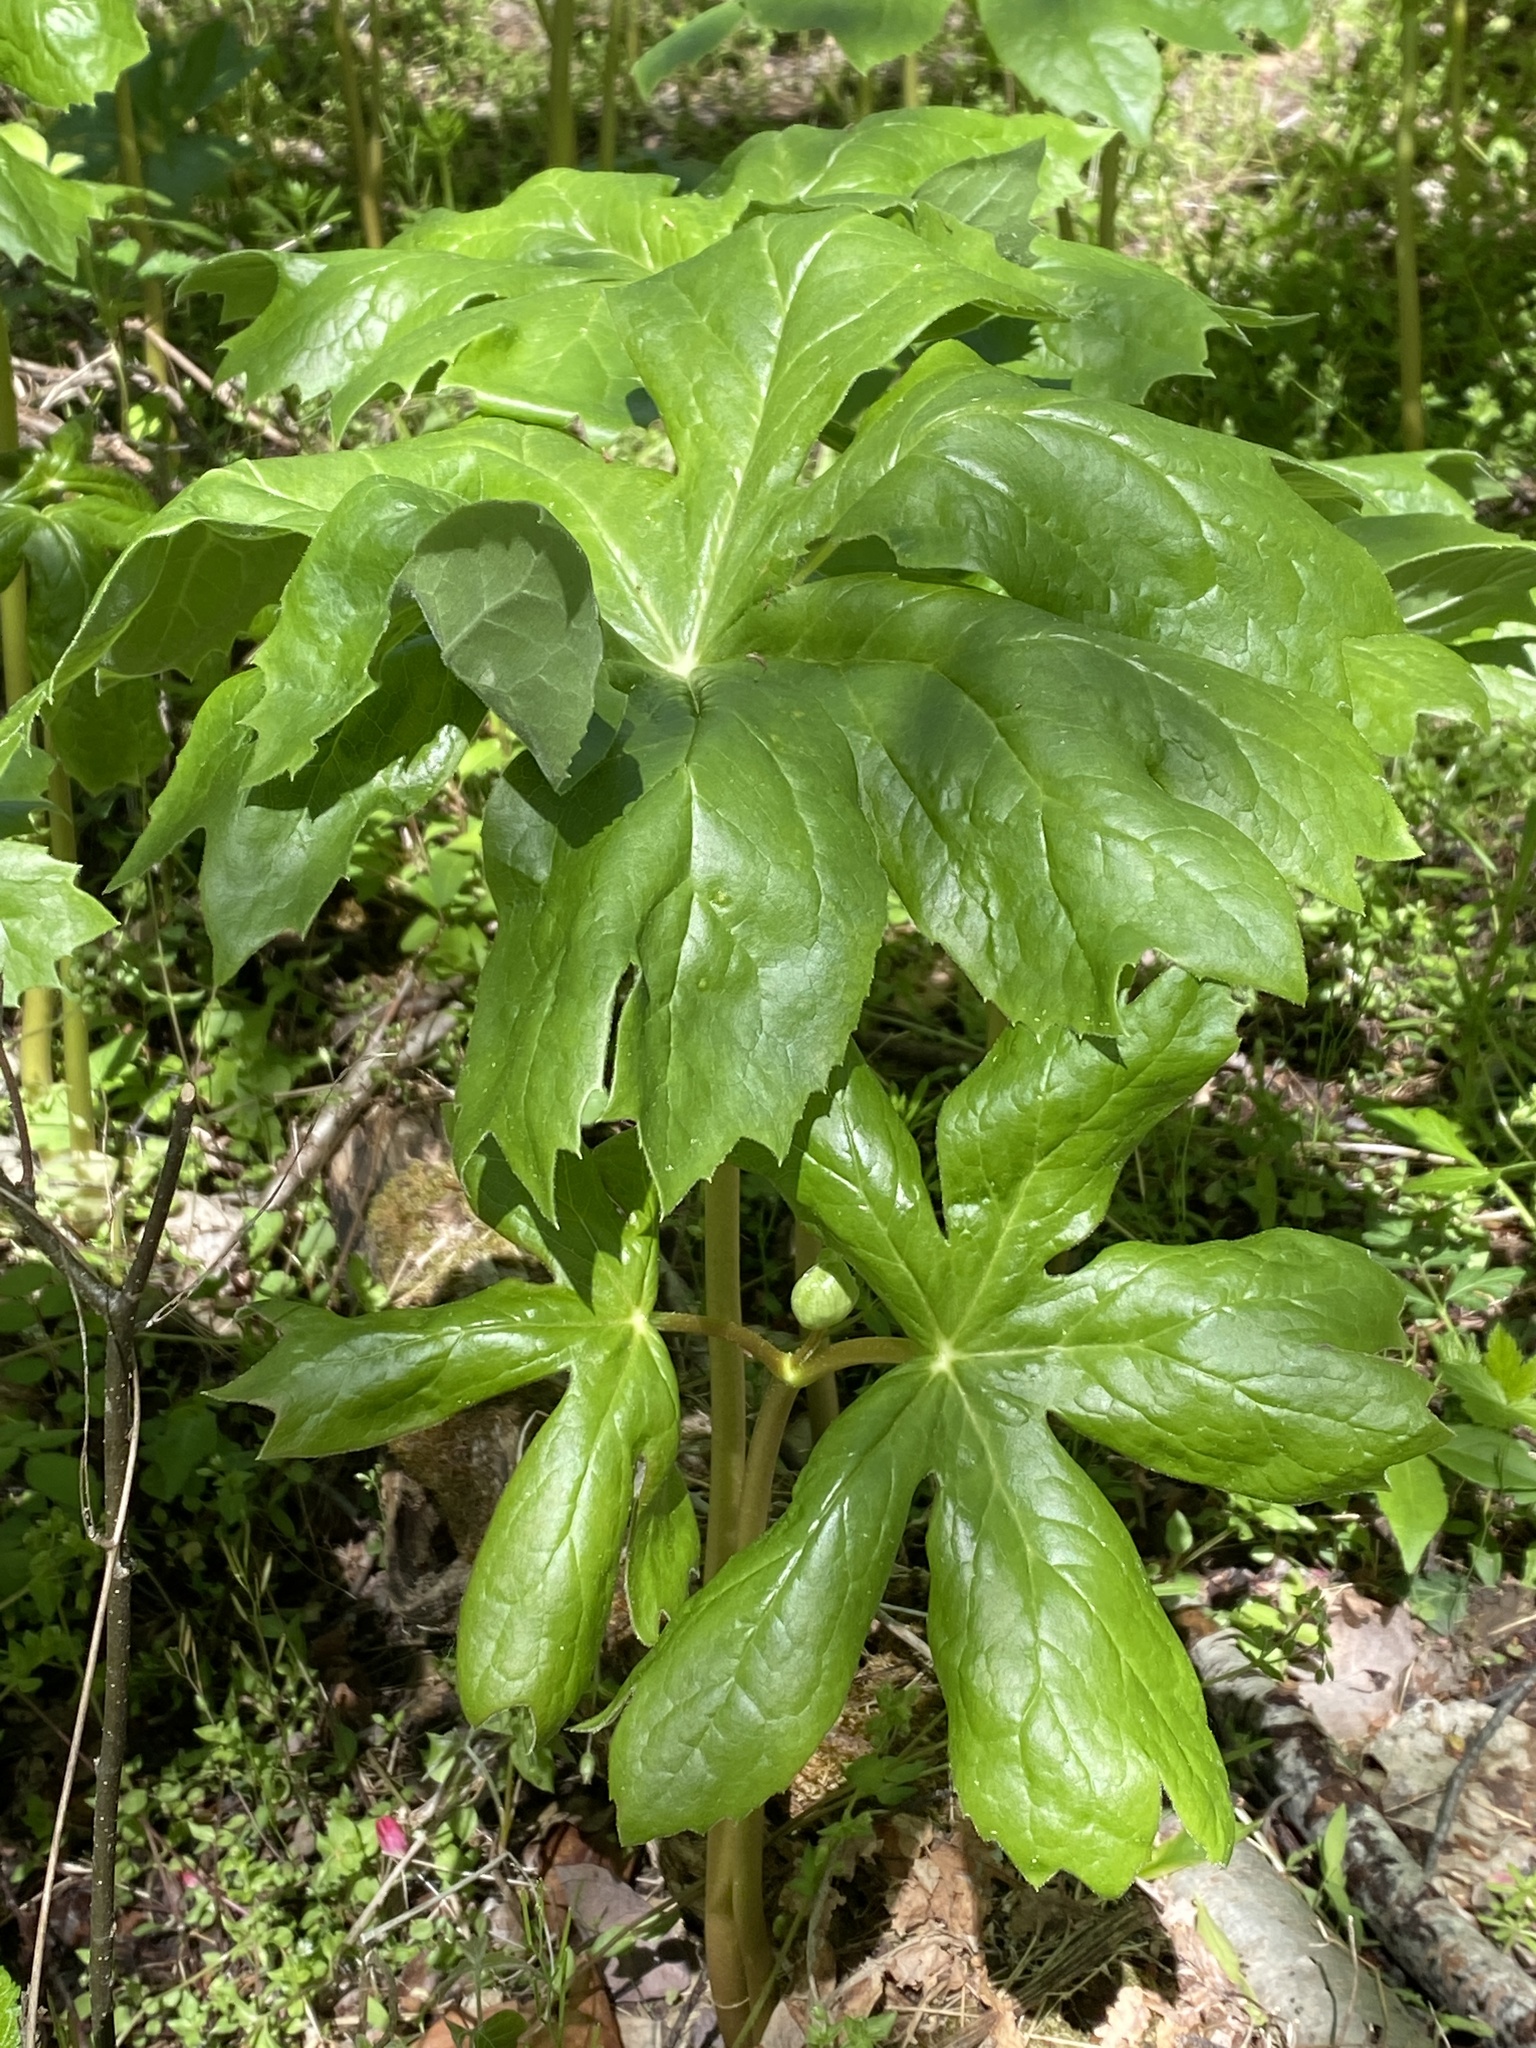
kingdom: Plantae
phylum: Tracheophyta
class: Magnoliopsida
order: Ranunculales
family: Berberidaceae
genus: Podophyllum
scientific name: Podophyllum peltatum
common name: Wild mandrake
